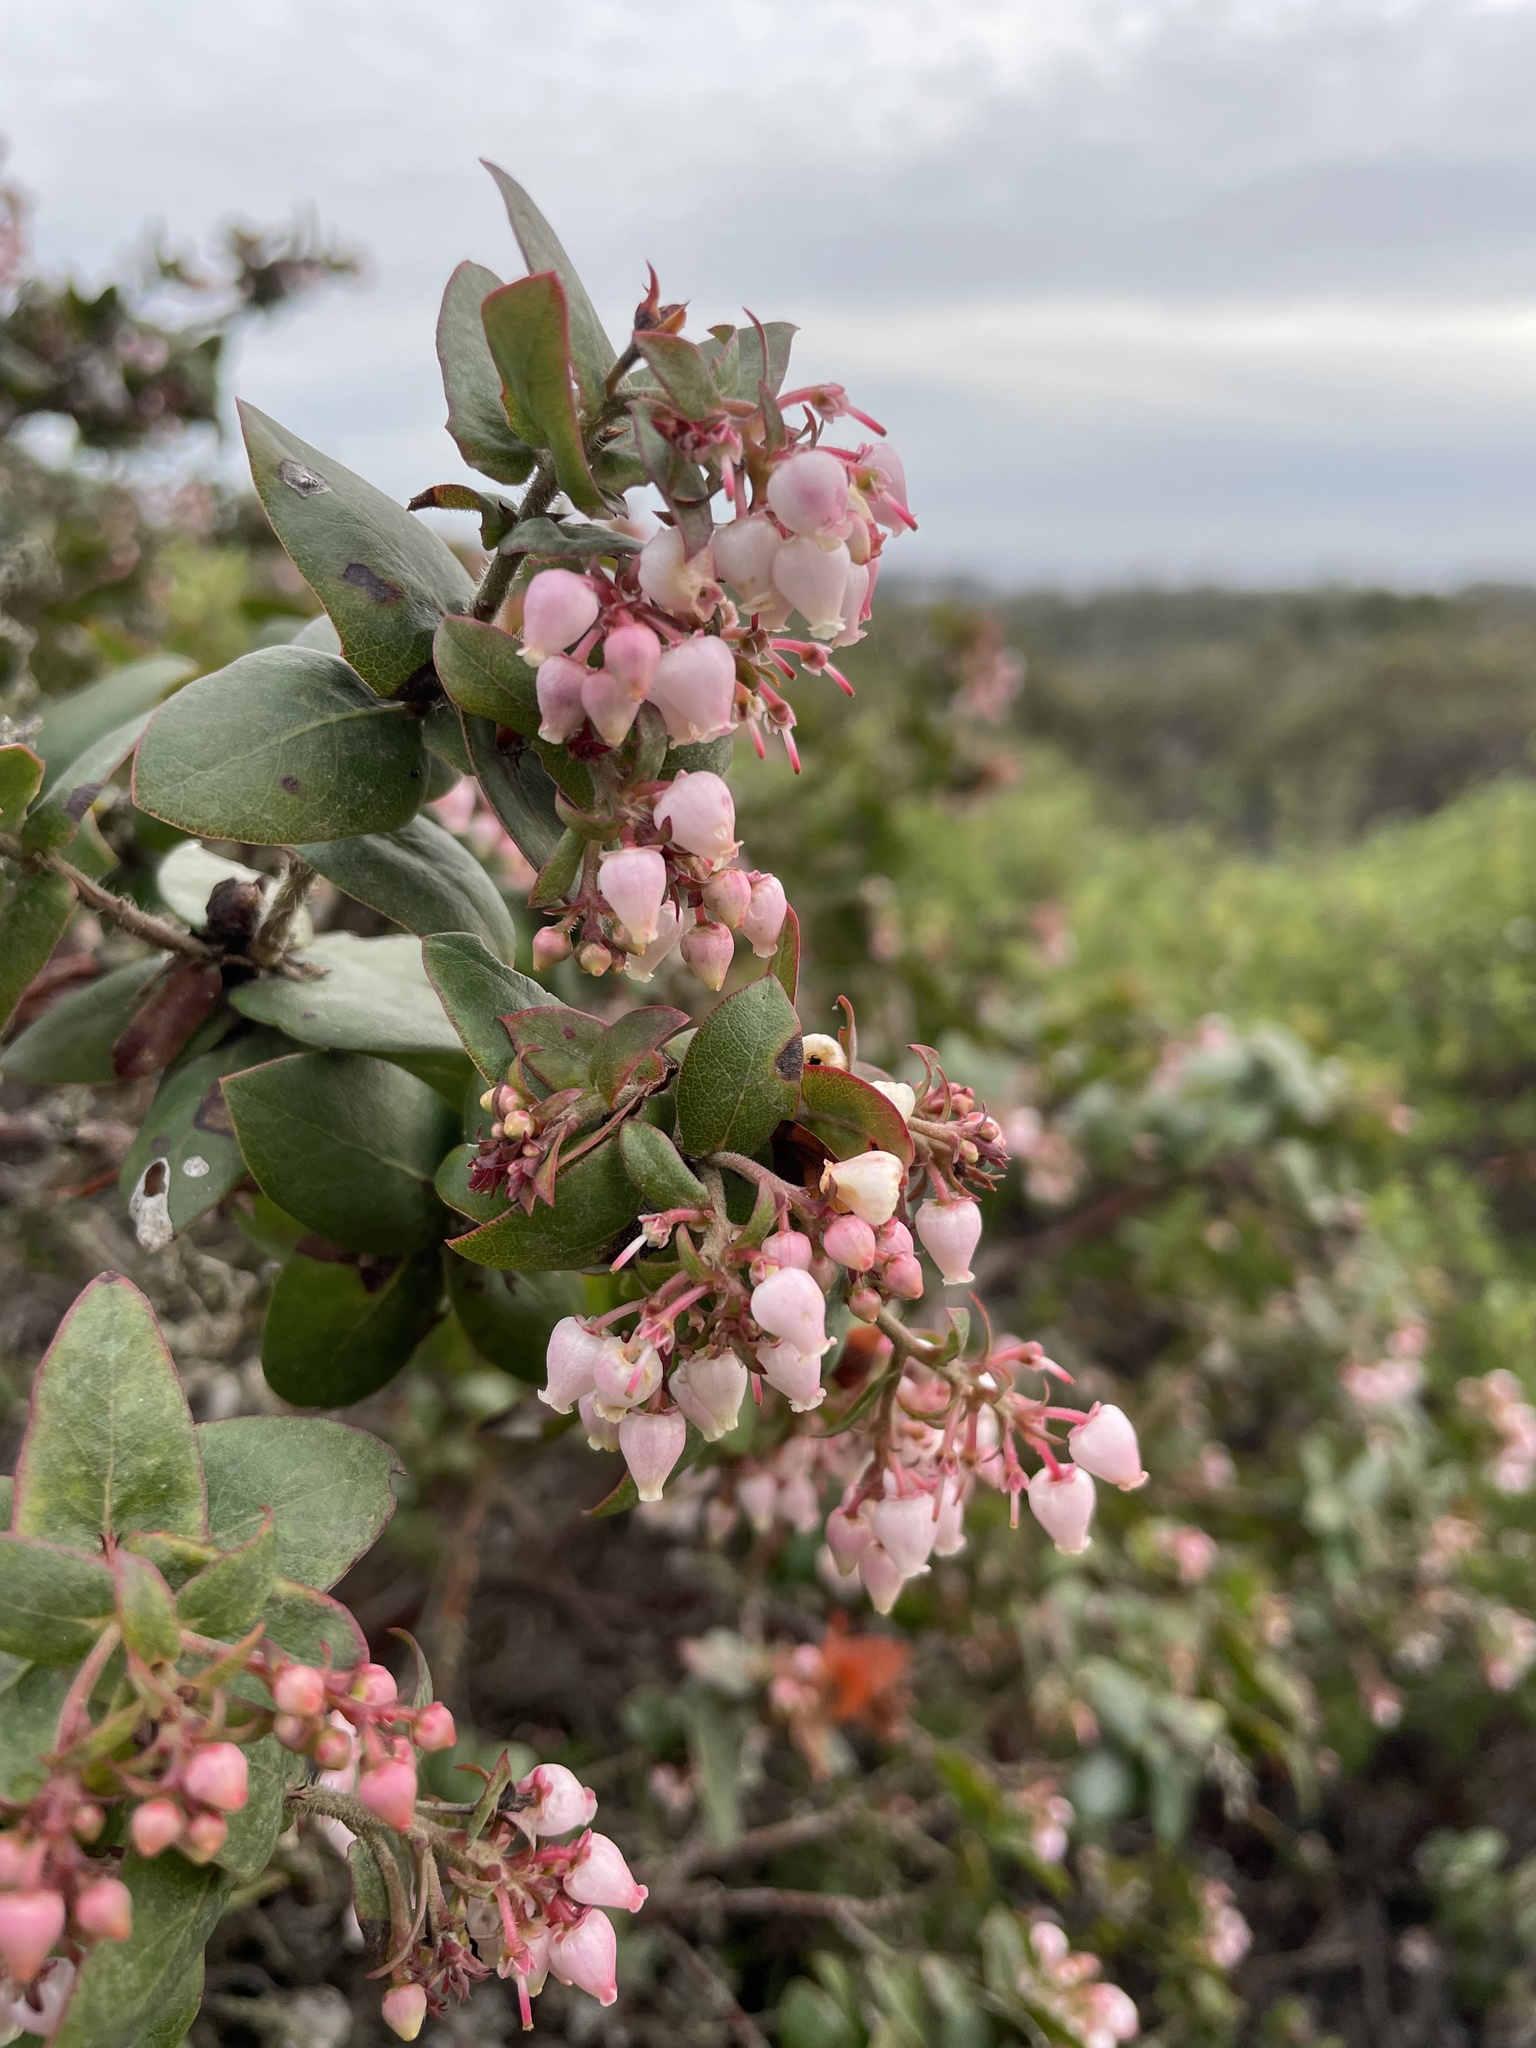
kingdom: Plantae
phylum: Tracheophyta
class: Magnoliopsida
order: Ericales
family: Ericaceae
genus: Arctostaphylos
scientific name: Arctostaphylos pajaroensis
